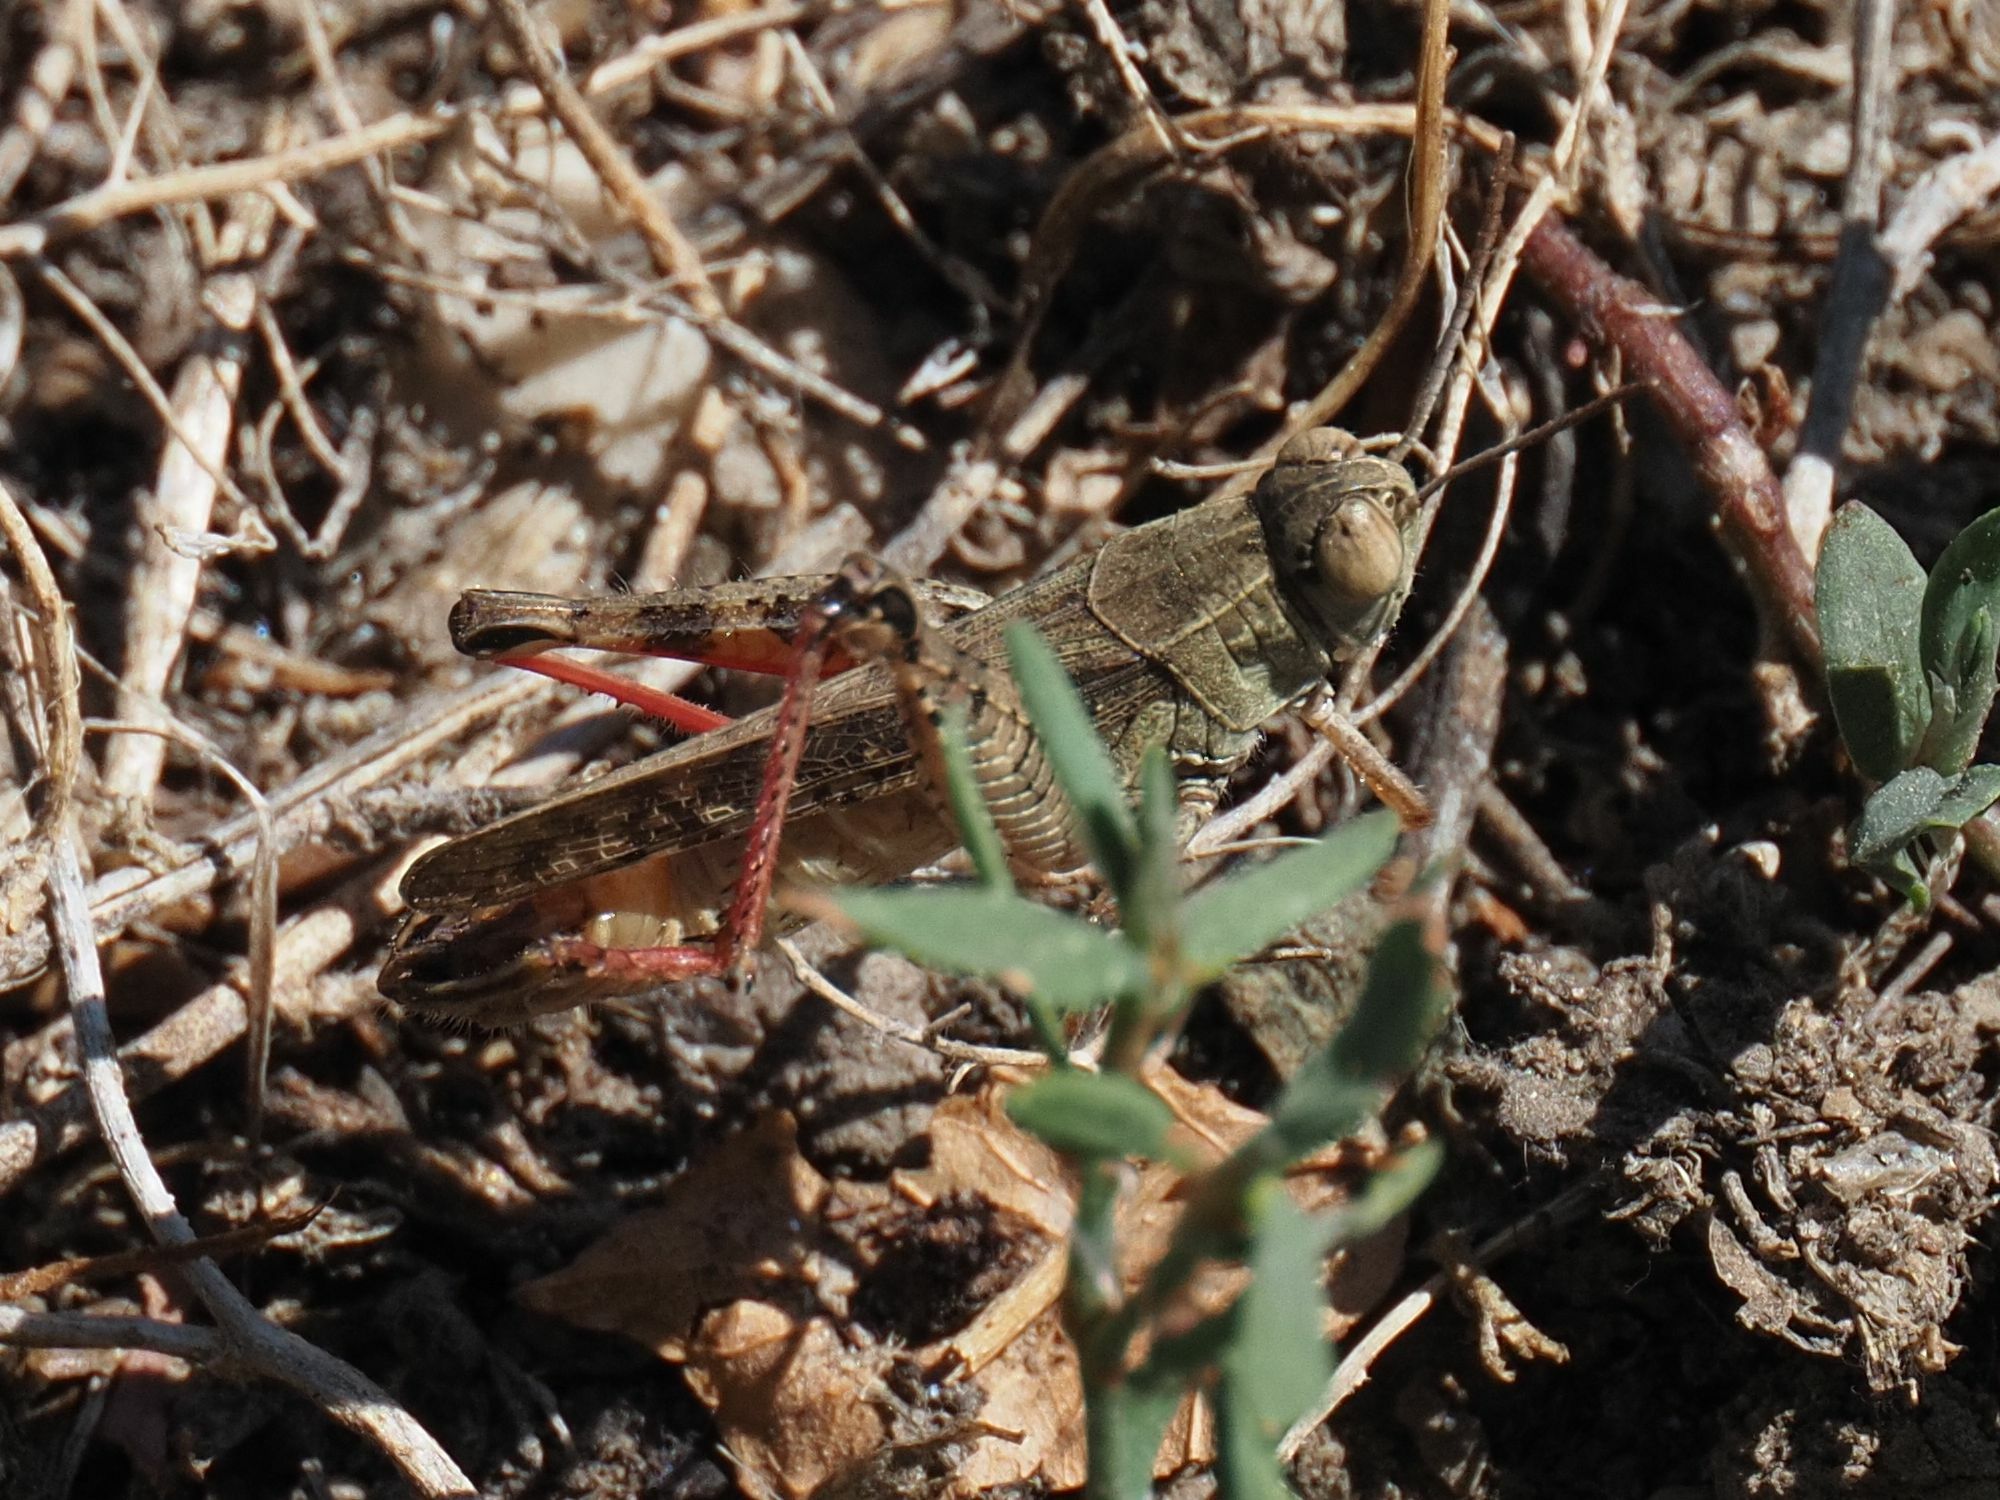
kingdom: Animalia
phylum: Arthropoda
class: Insecta
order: Orthoptera
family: Acrididae
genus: Calliptamus
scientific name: Calliptamus italicus
